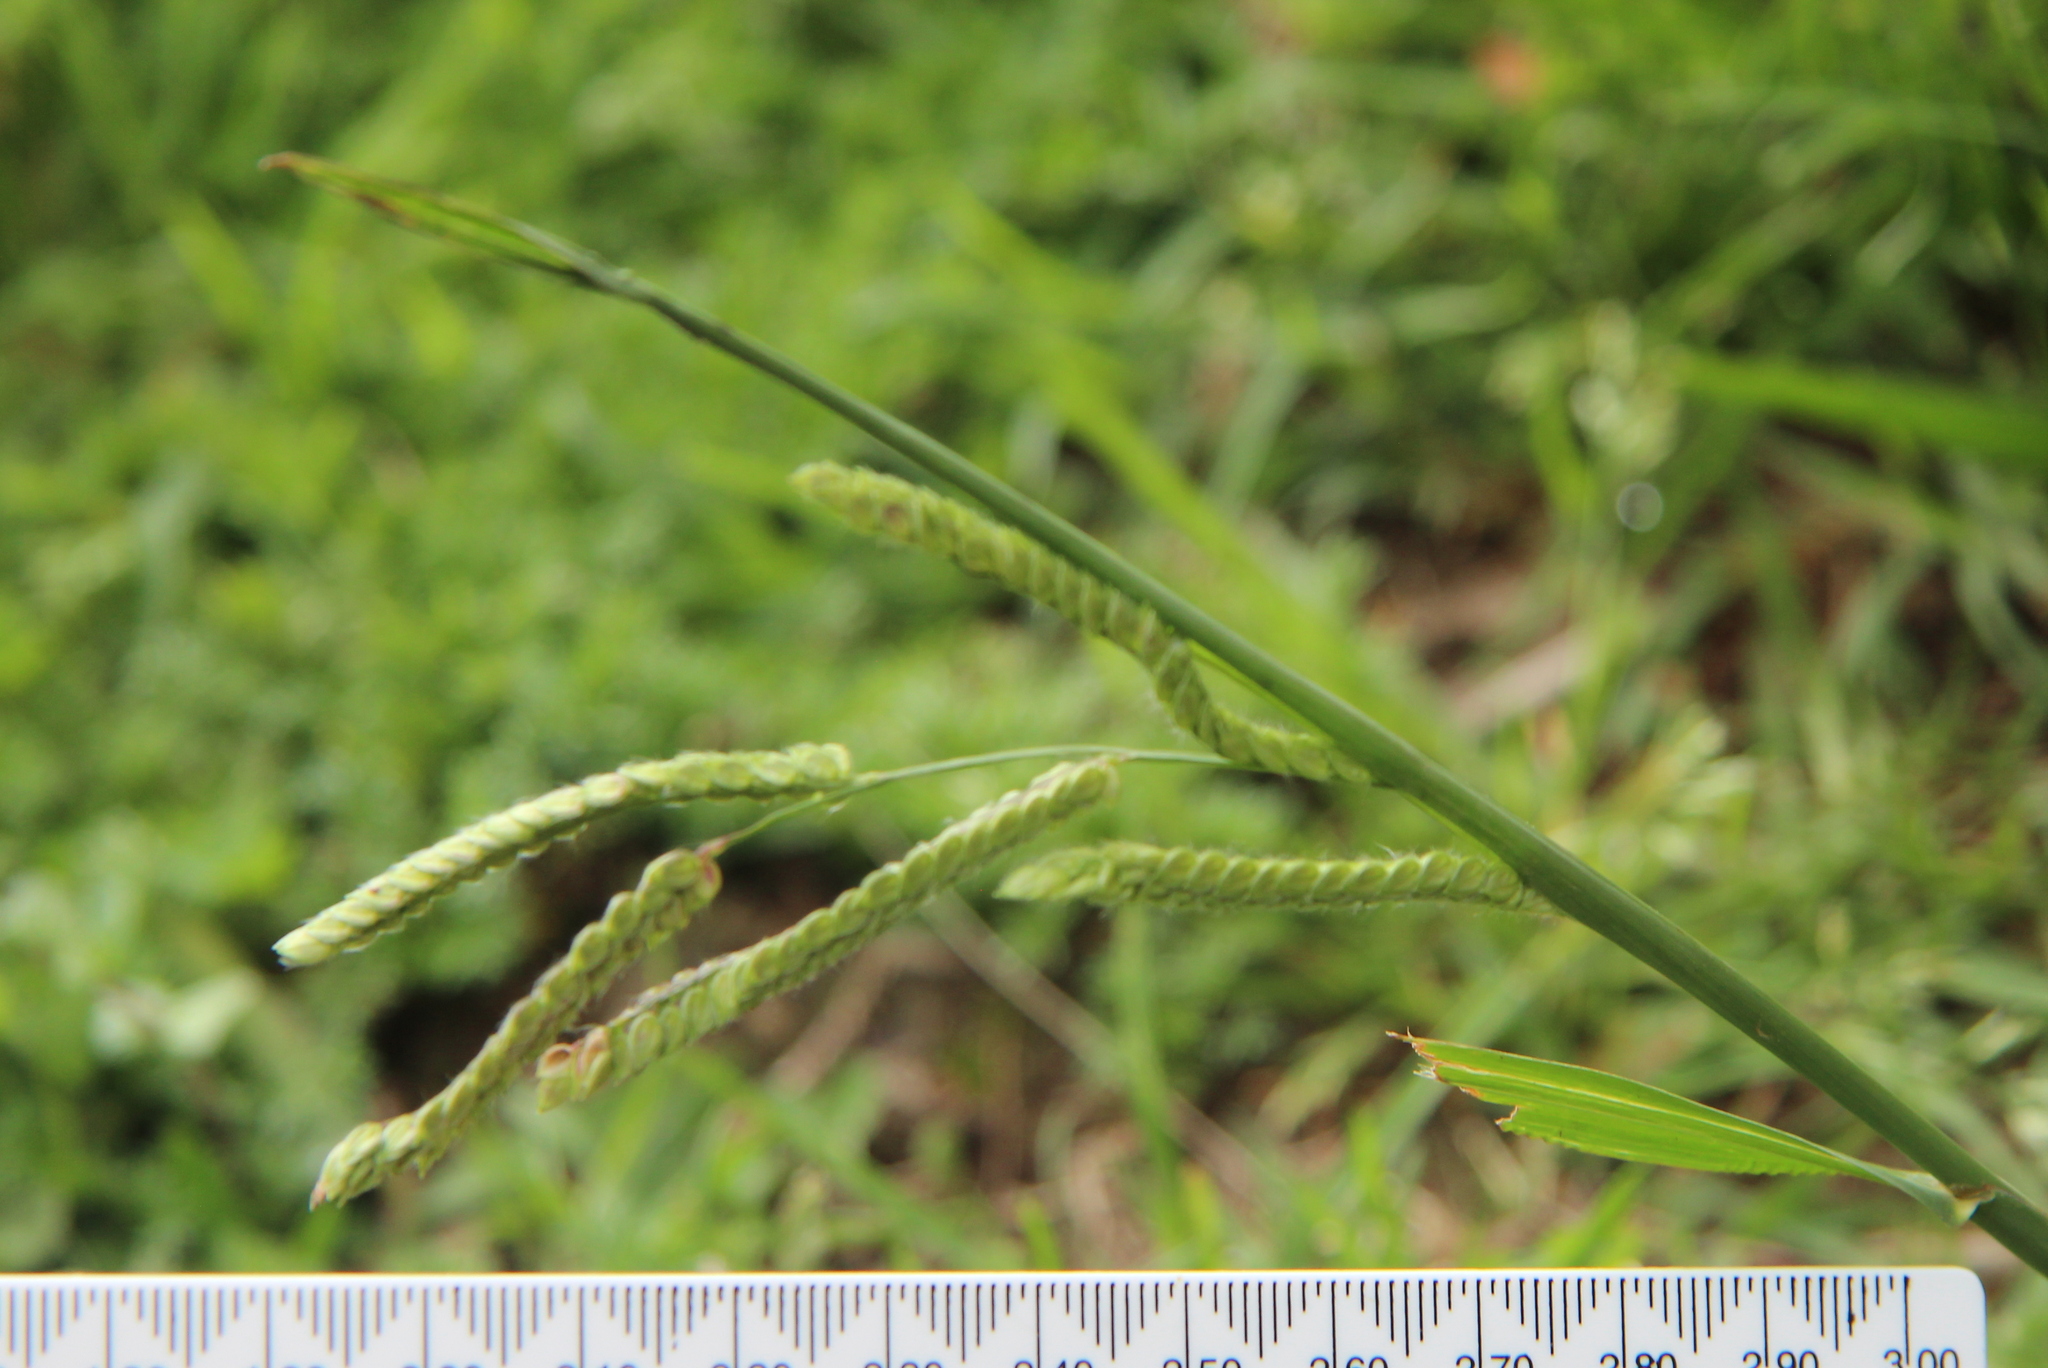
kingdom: Plantae
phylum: Tracheophyta
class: Liliopsida
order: Poales
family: Poaceae
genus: Paspalum
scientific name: Paspalum dilatatum
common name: Dallisgrass
